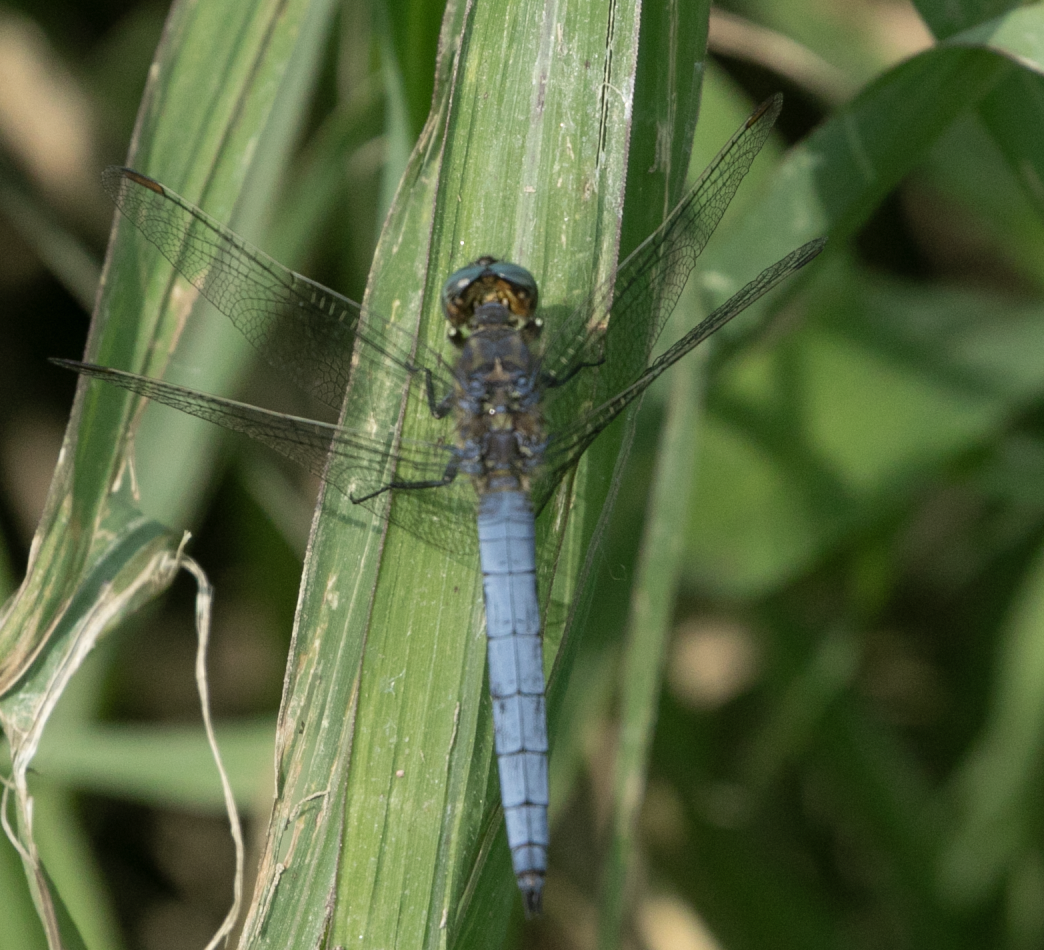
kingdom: Animalia
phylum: Arthropoda
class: Insecta
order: Odonata
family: Libellulidae
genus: Orthetrum
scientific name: Orthetrum coerulescens
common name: Keeled skimmer
